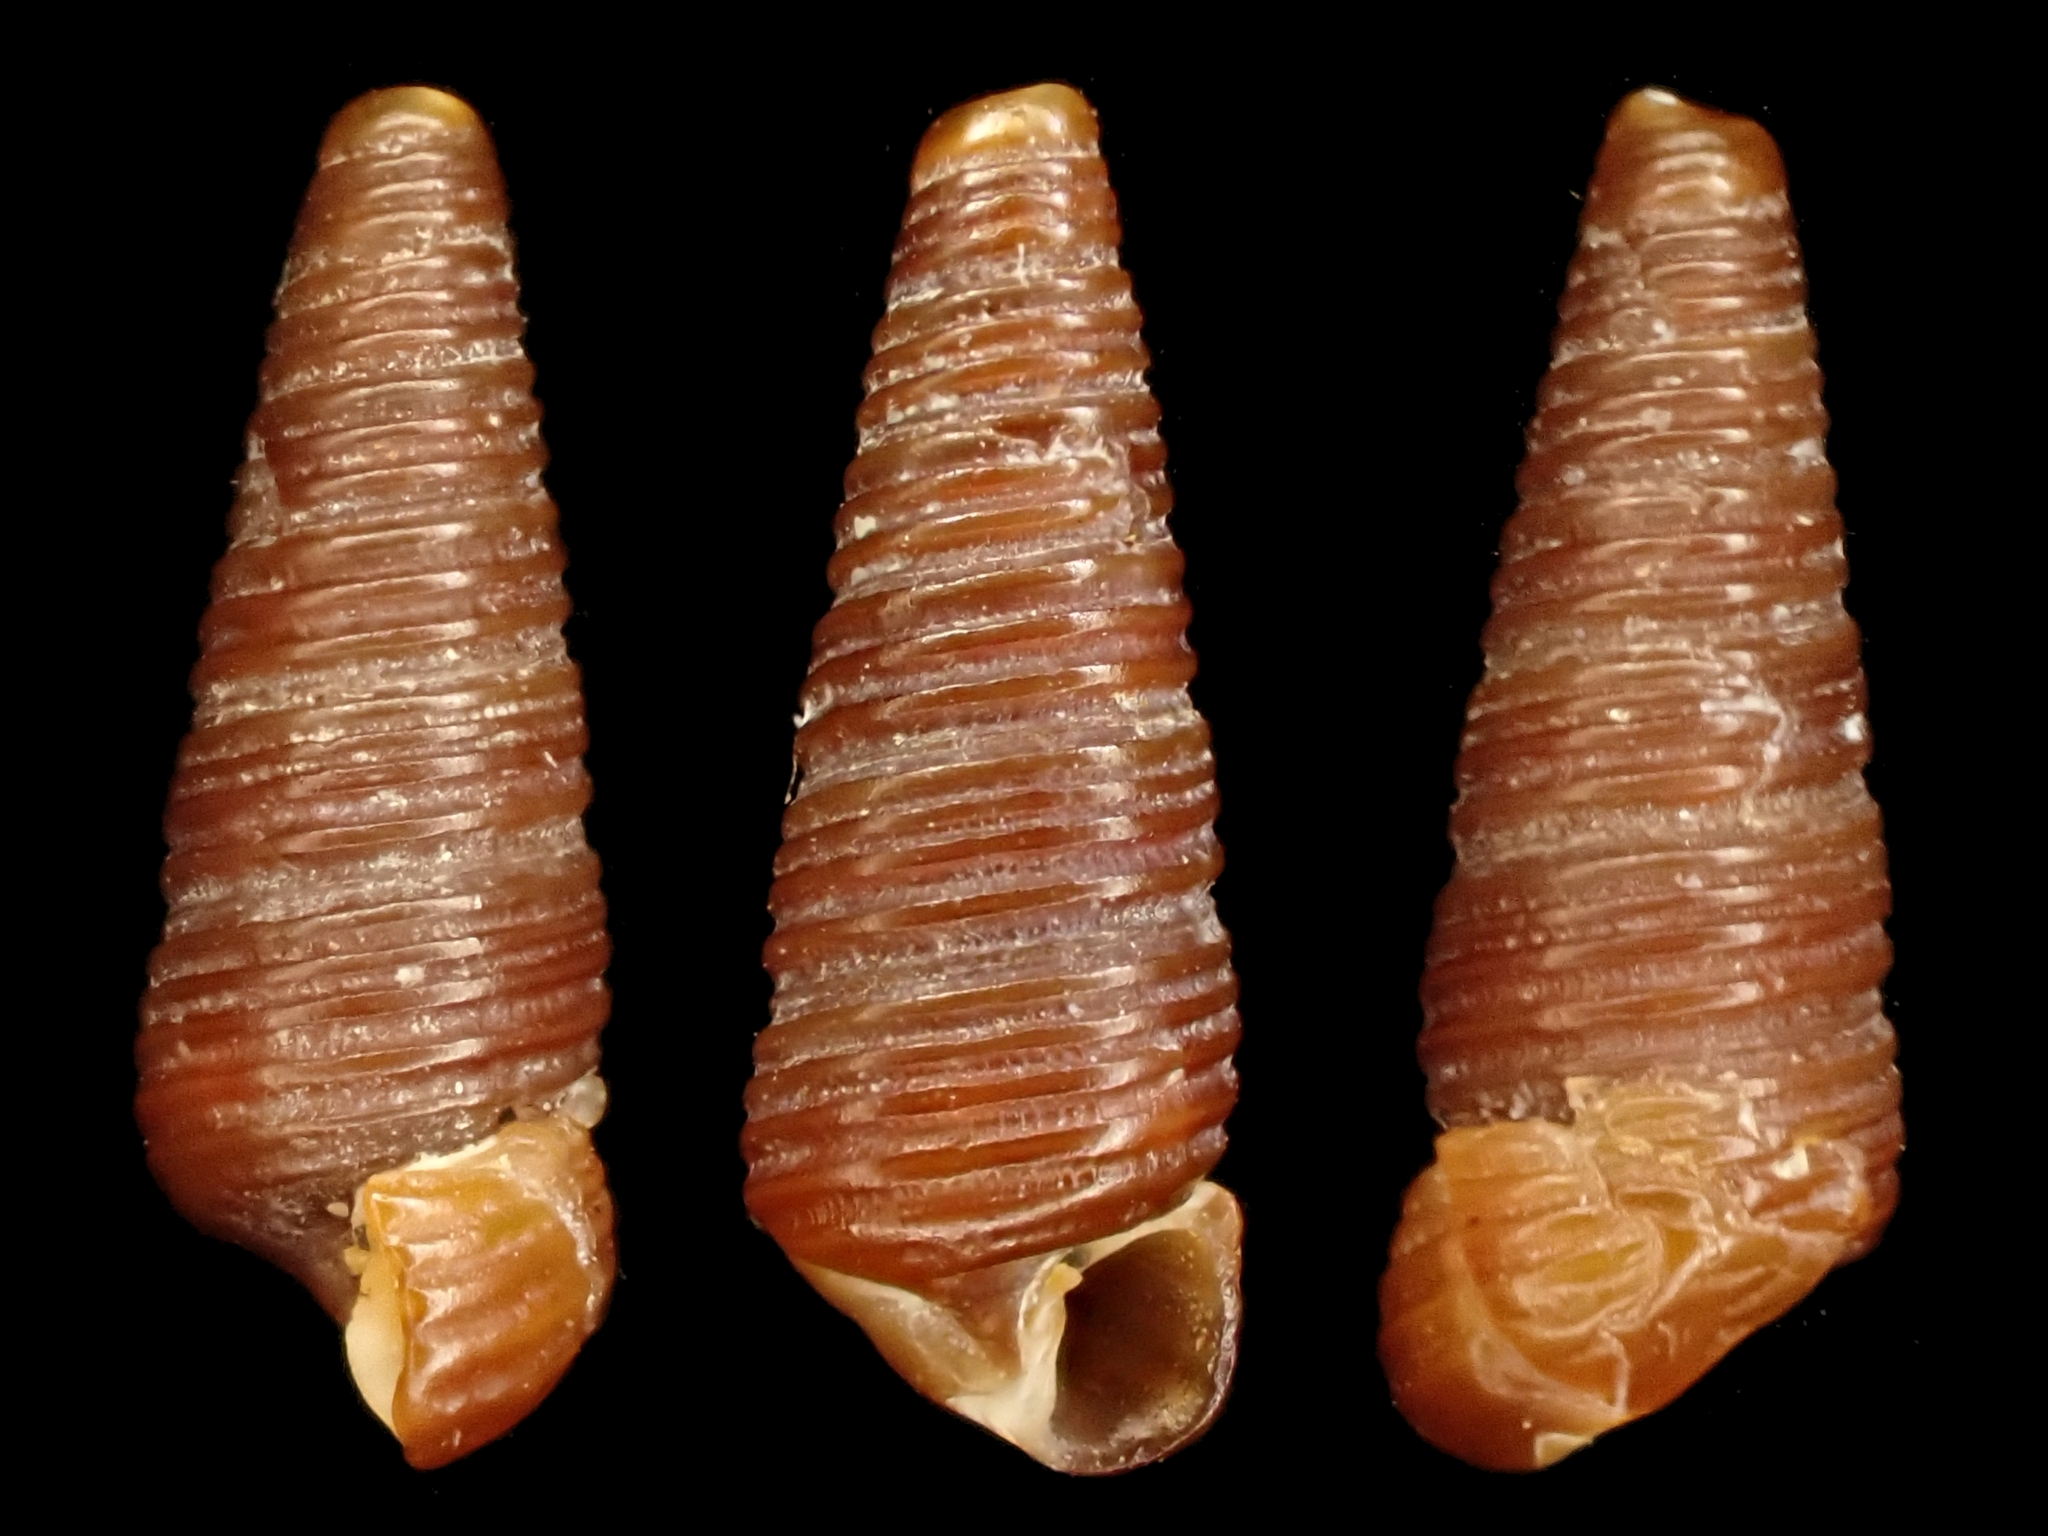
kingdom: Animalia
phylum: Mollusca
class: Gastropoda
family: Cerithiopsidae
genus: Seila
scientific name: Seila cincta
